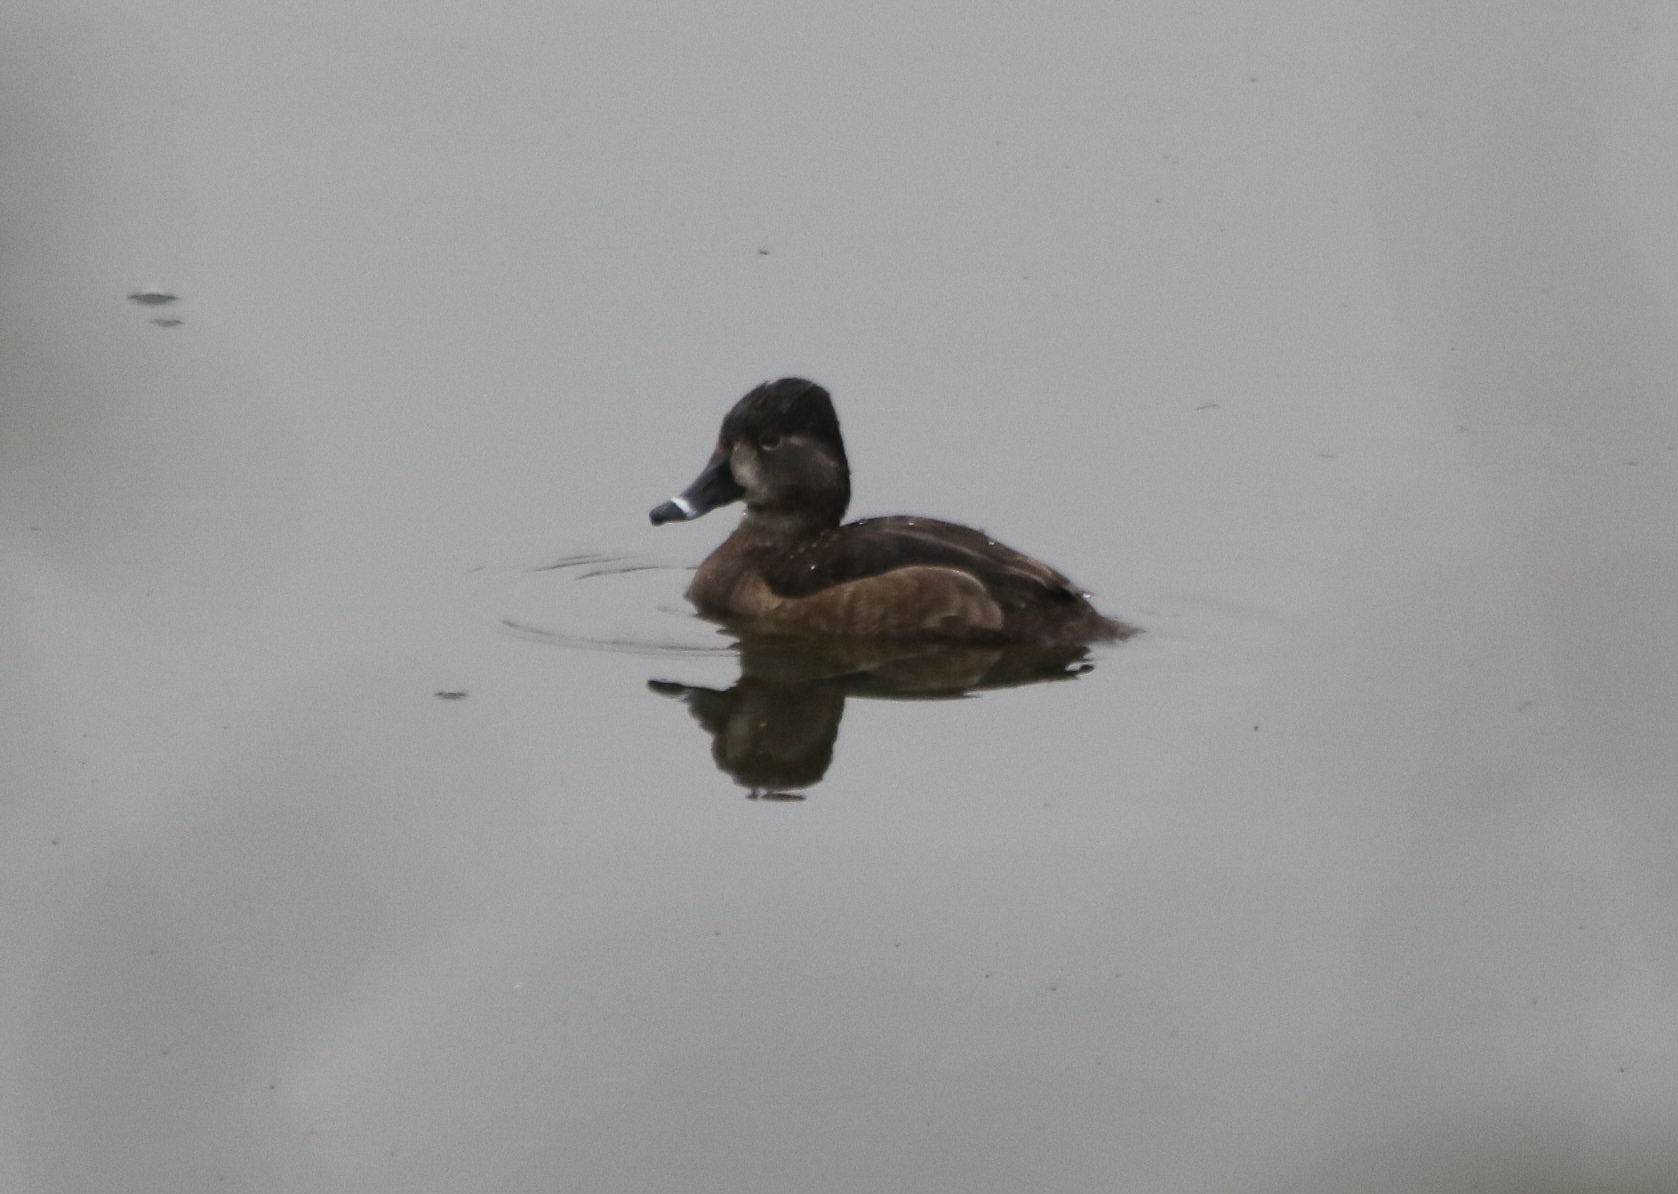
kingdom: Animalia
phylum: Chordata
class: Aves
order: Anseriformes
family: Anatidae
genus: Aythya
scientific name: Aythya collaris
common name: Ring-necked duck
